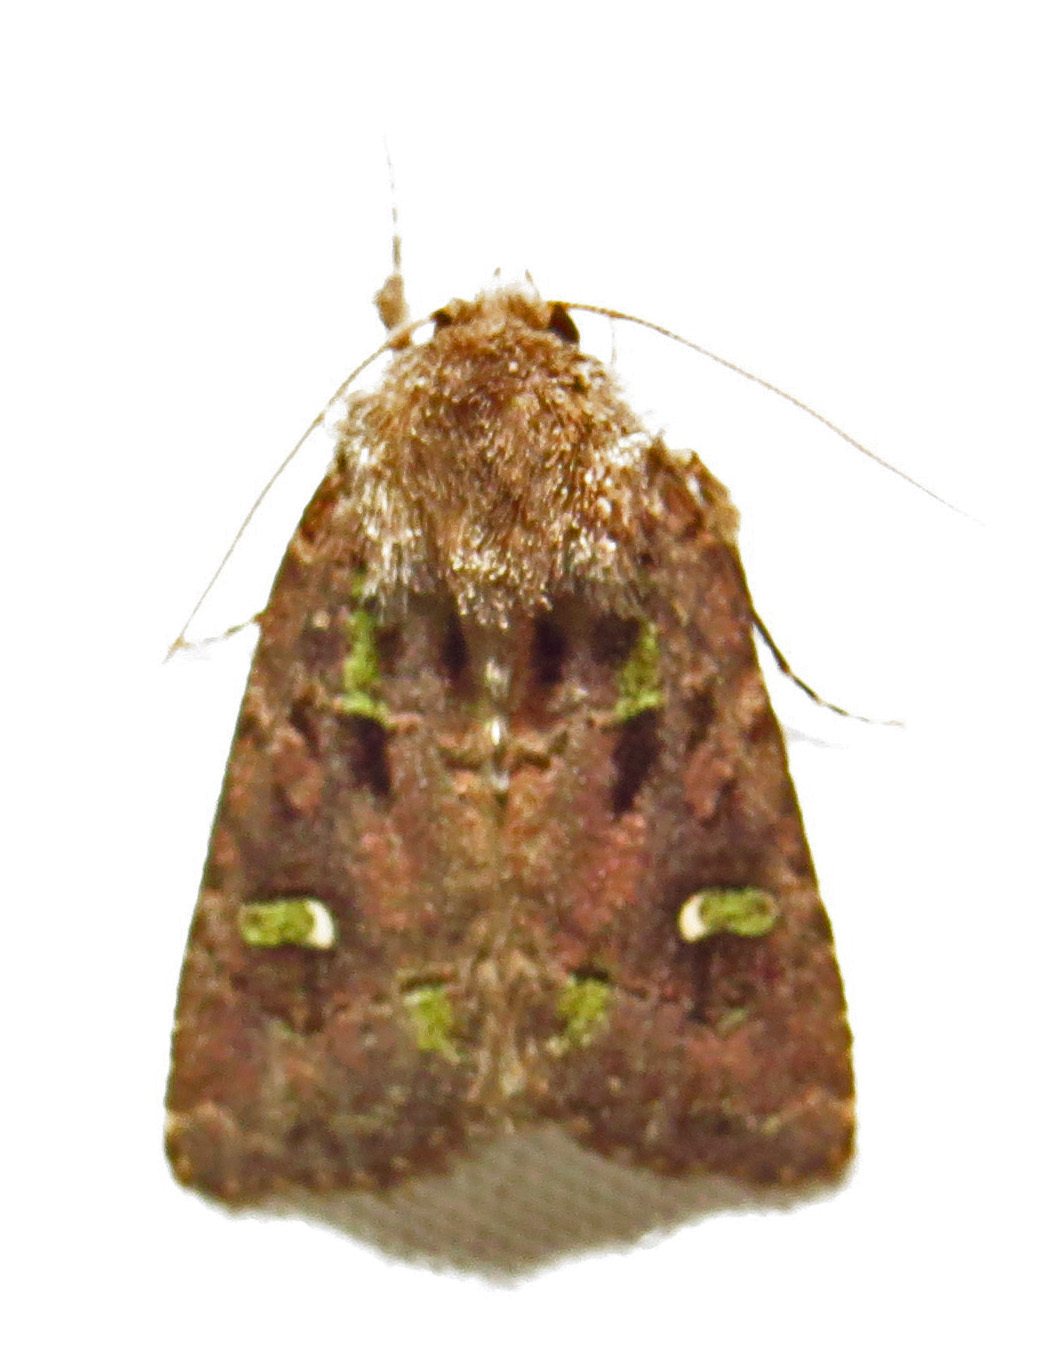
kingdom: Animalia
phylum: Arthropoda
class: Insecta
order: Lepidoptera
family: Noctuidae
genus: Lacinipolia
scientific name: Lacinipolia renigera
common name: Kidney-spotted minor
